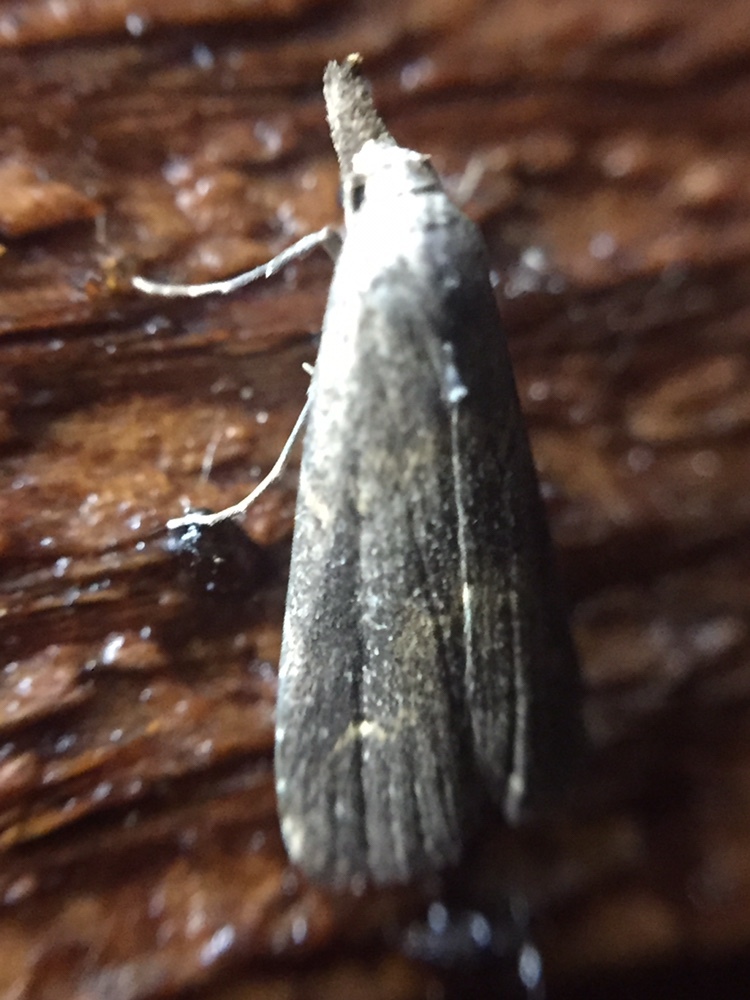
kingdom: Animalia
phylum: Arthropoda
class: Insecta
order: Lepidoptera
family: Erebidae
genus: Schrankia
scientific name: Schrankia costaestrigalis
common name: Pinion-streaked snout
